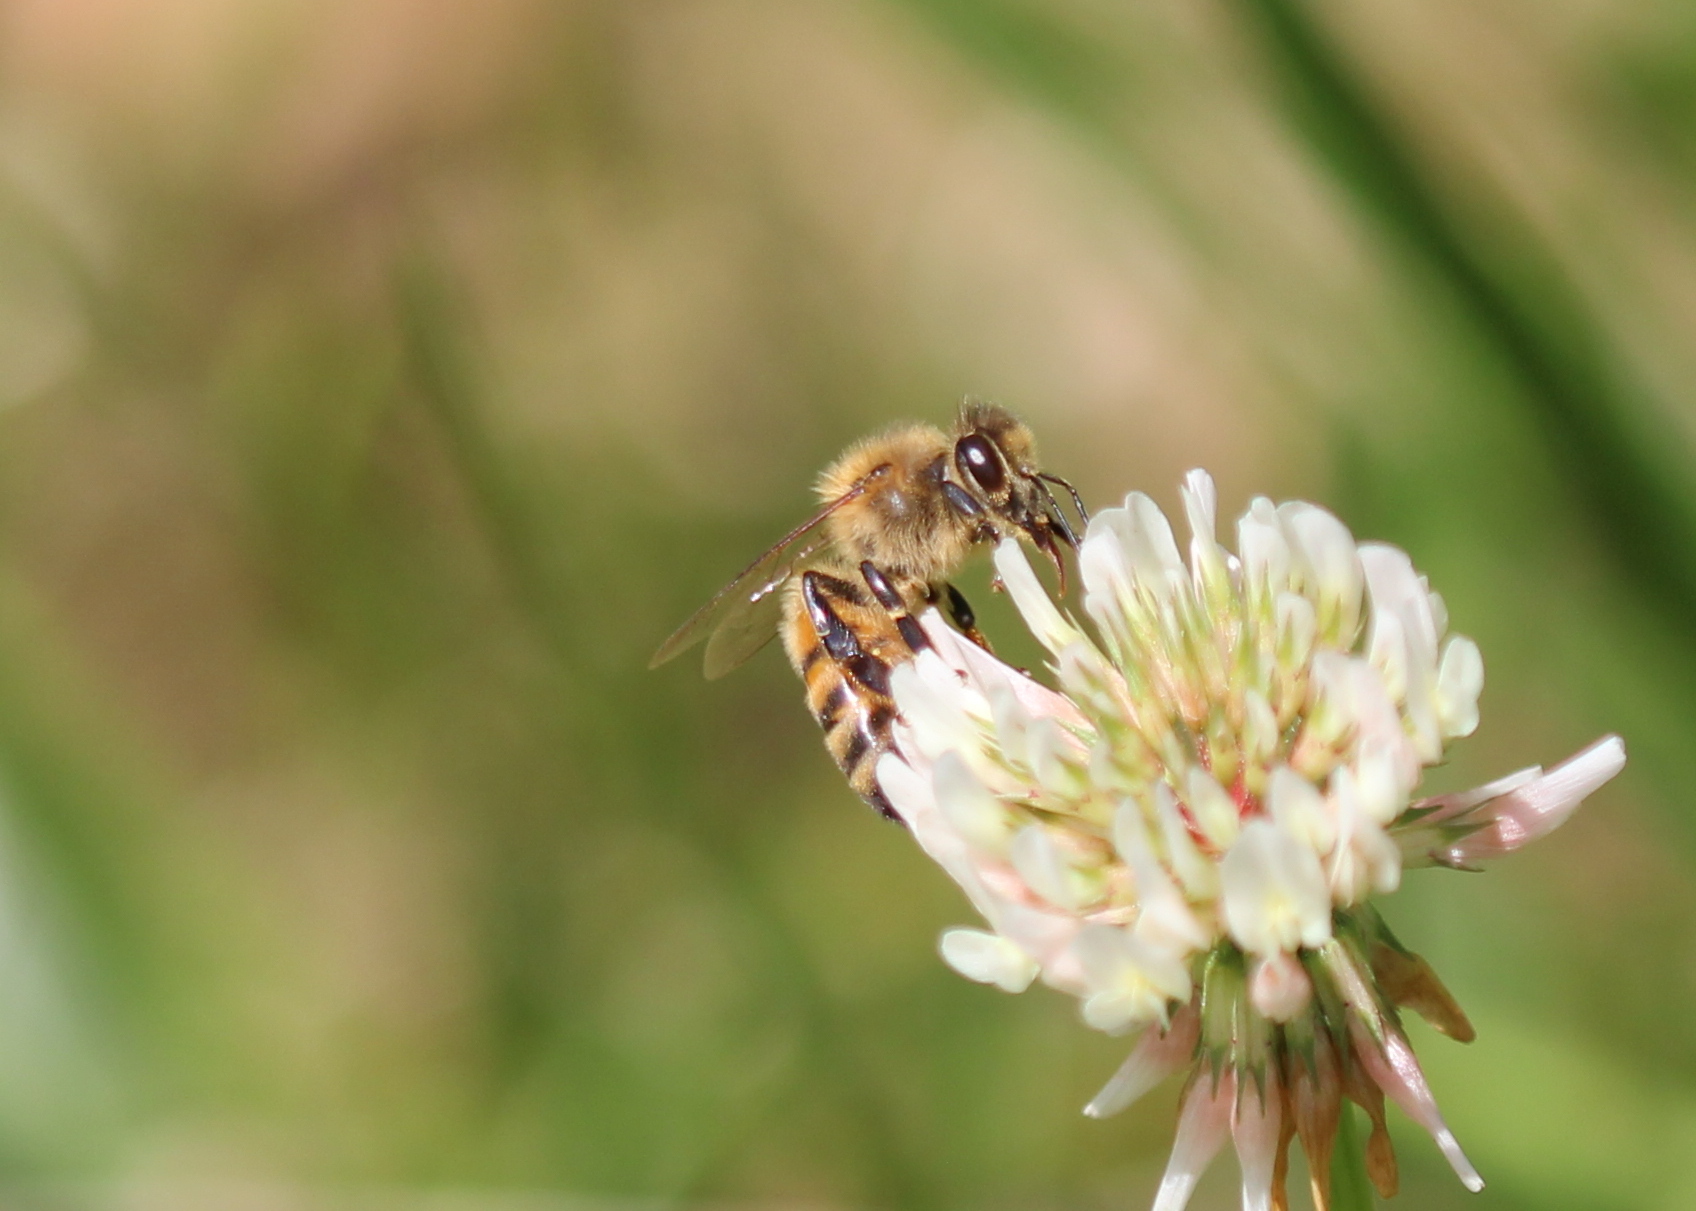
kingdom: Animalia
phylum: Arthropoda
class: Insecta
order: Hymenoptera
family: Apidae
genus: Apis
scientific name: Apis mellifera
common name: Honey bee
